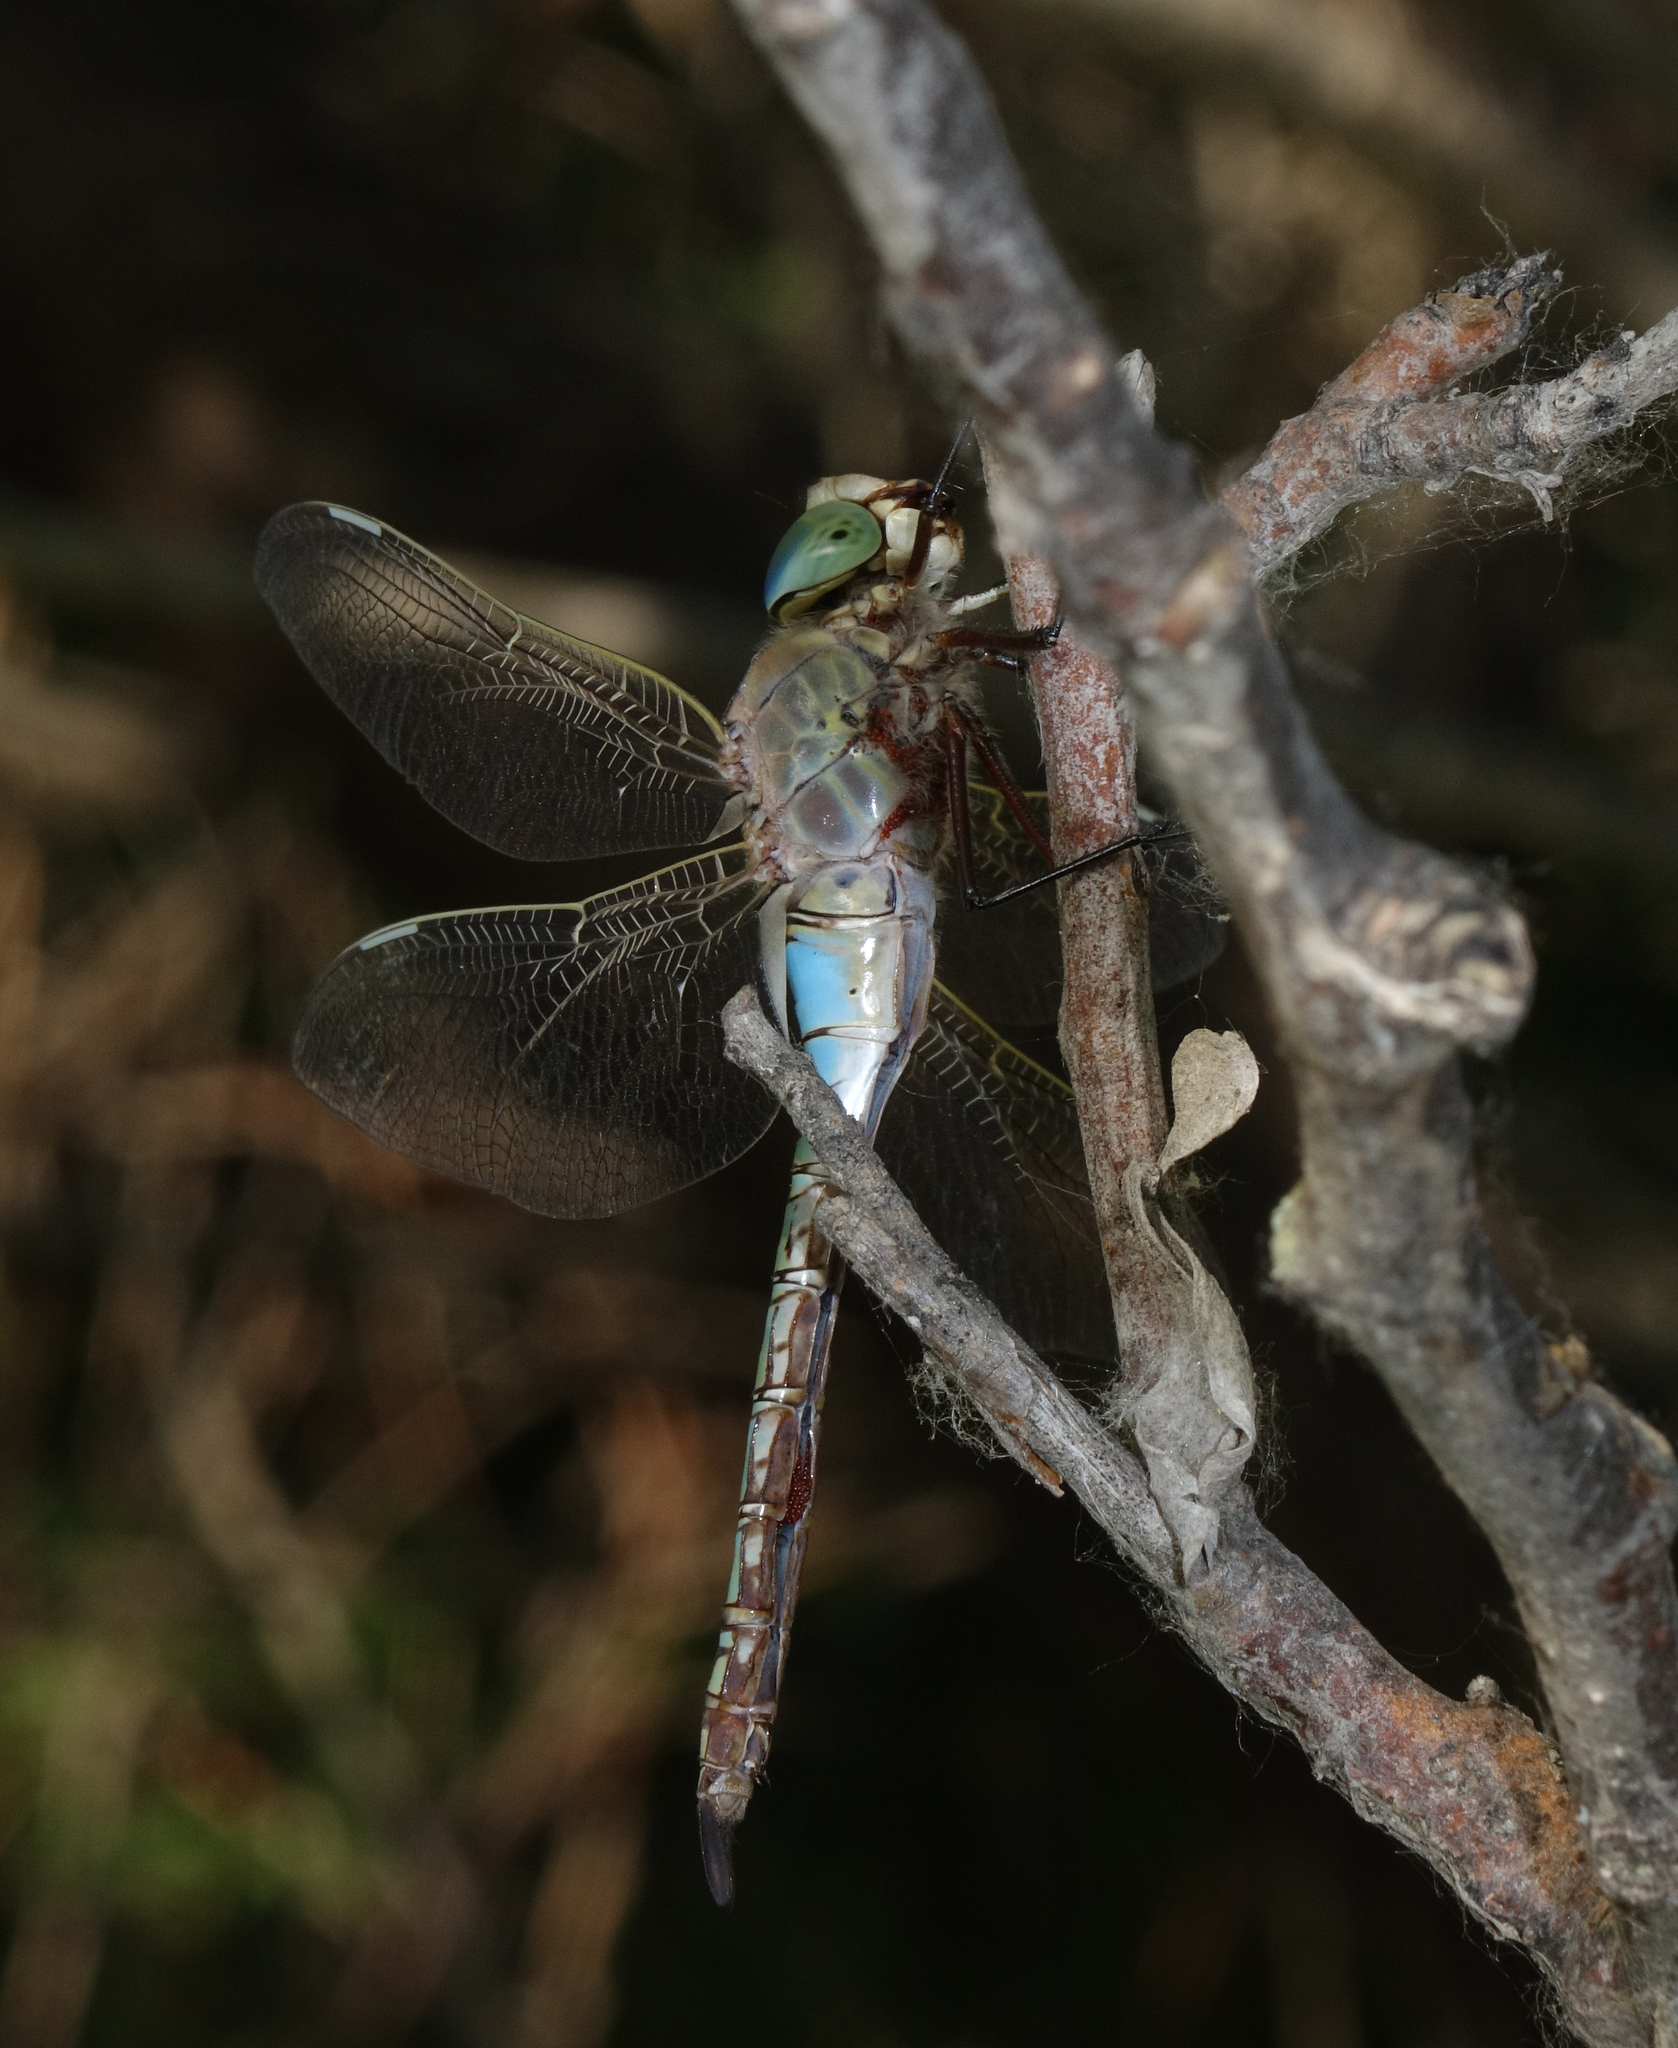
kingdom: Animalia
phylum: Arthropoda
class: Insecta
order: Odonata
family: Aeshnidae
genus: Anax
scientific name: Anax parthenope
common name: Lesser emperor
